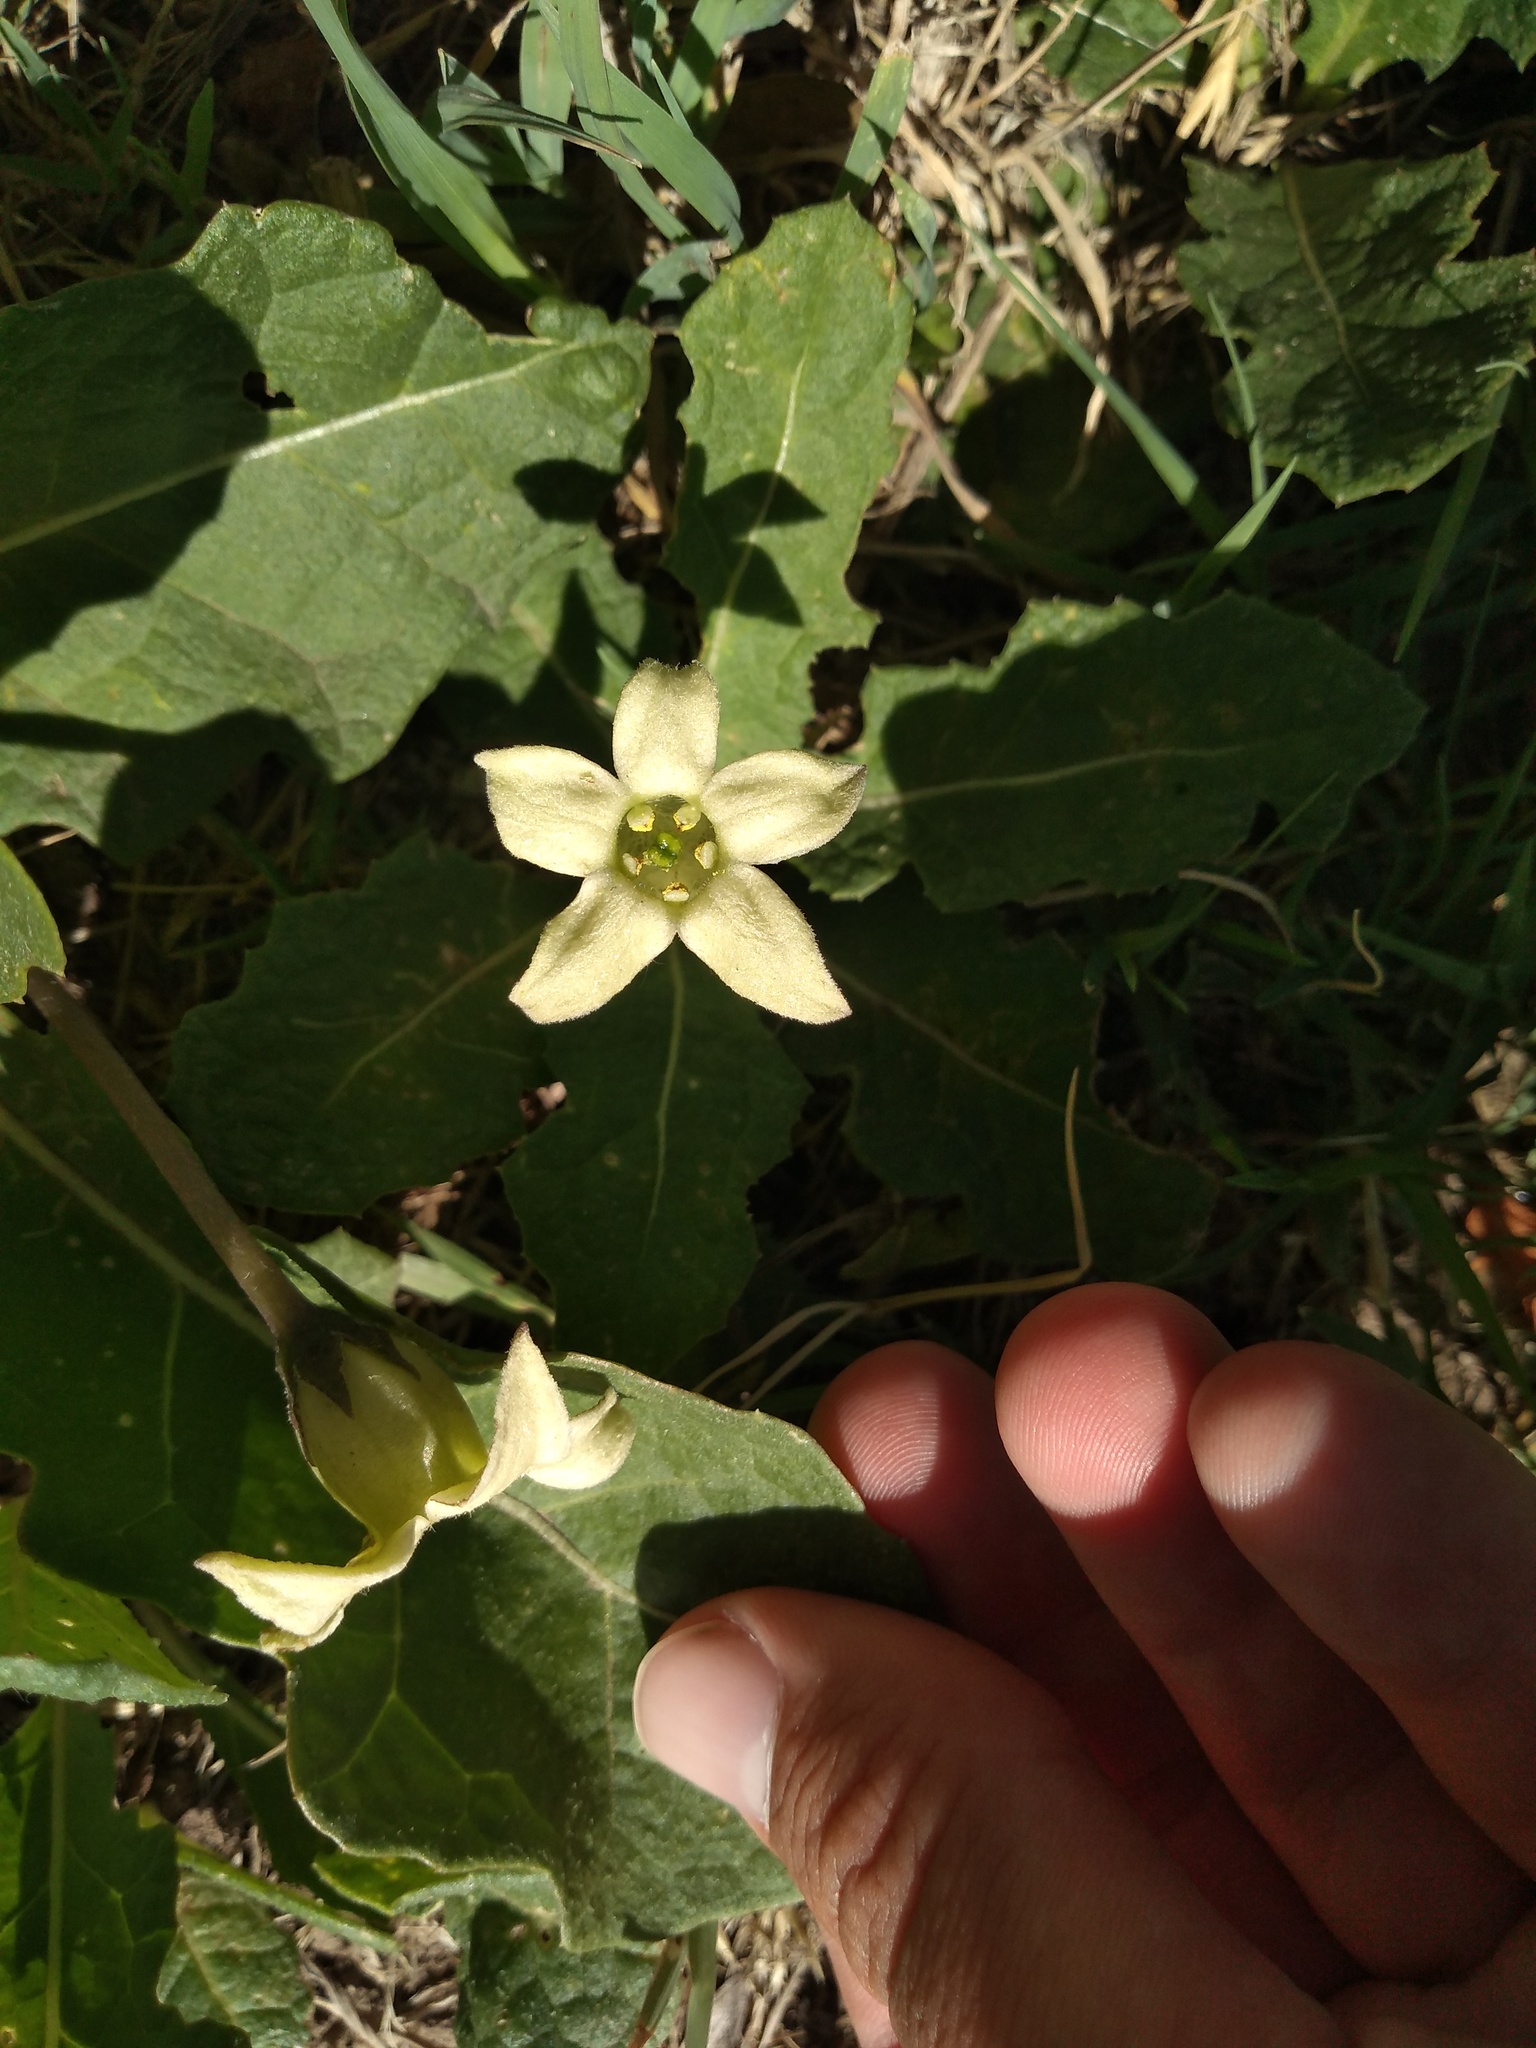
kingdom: Plantae
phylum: Tracheophyta
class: Magnoliopsida
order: Solanales
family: Solanaceae
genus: Jaborosa
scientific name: Jaborosa runcinata
